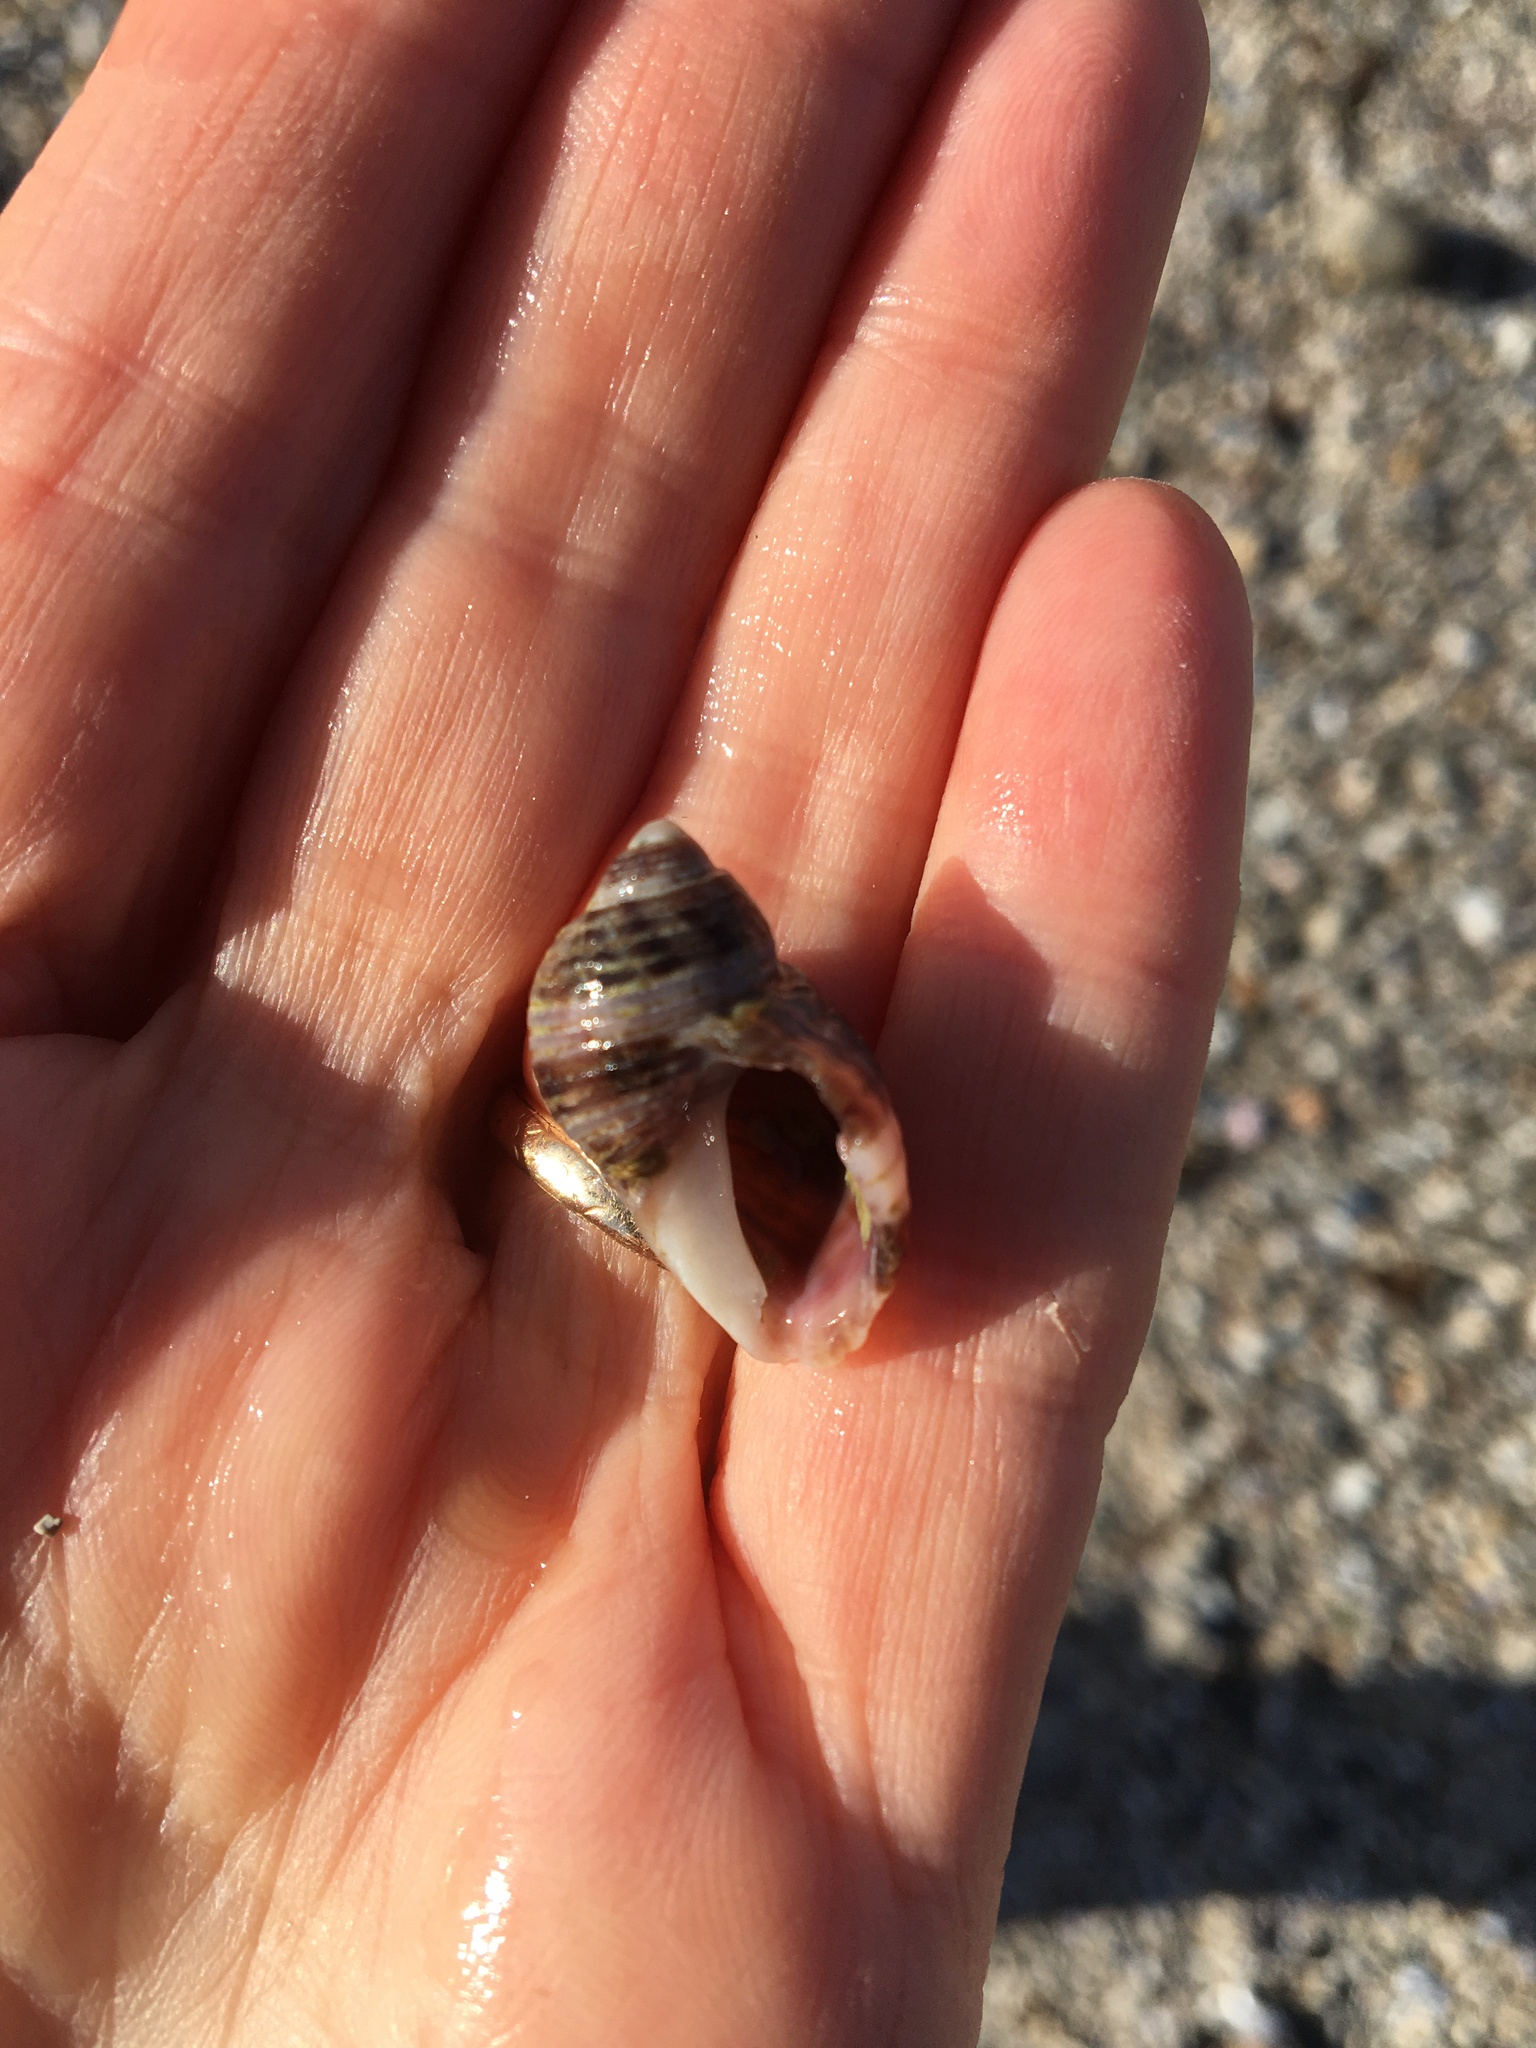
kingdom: Animalia
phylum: Mollusca
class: Gastropoda
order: Neogastropoda
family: Muricidae
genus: Nucella
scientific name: Nucella analoga
